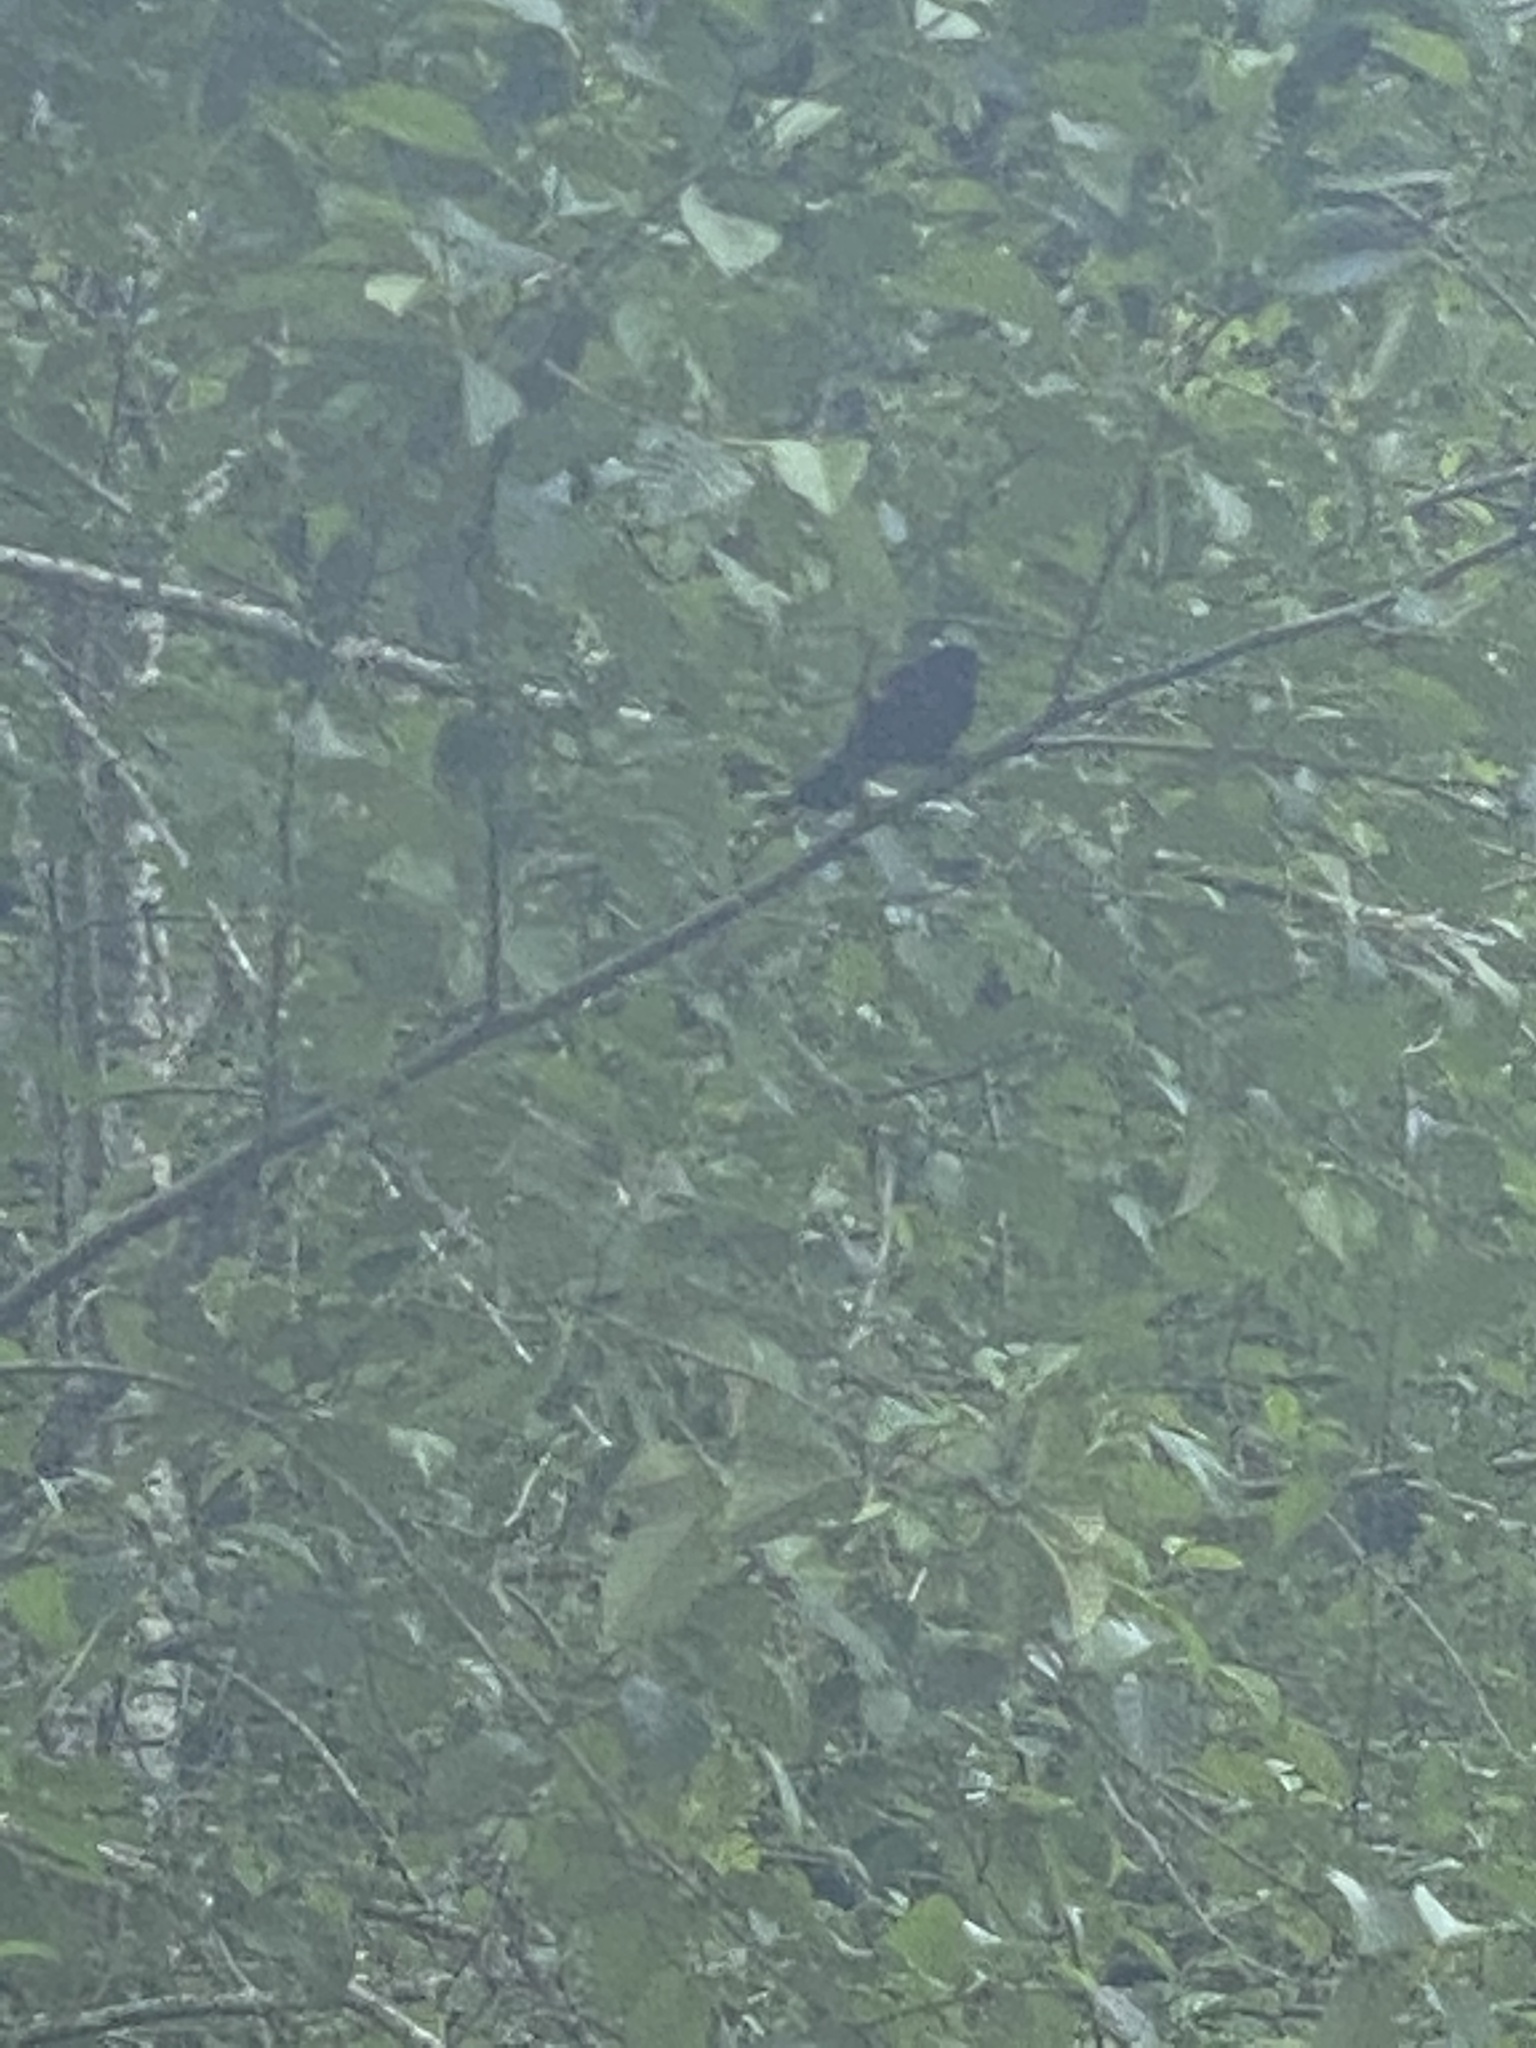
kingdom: Animalia
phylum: Chordata
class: Aves
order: Passeriformes
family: Icteridae
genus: Agelaius
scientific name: Agelaius phoeniceus
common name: Red-winged blackbird
